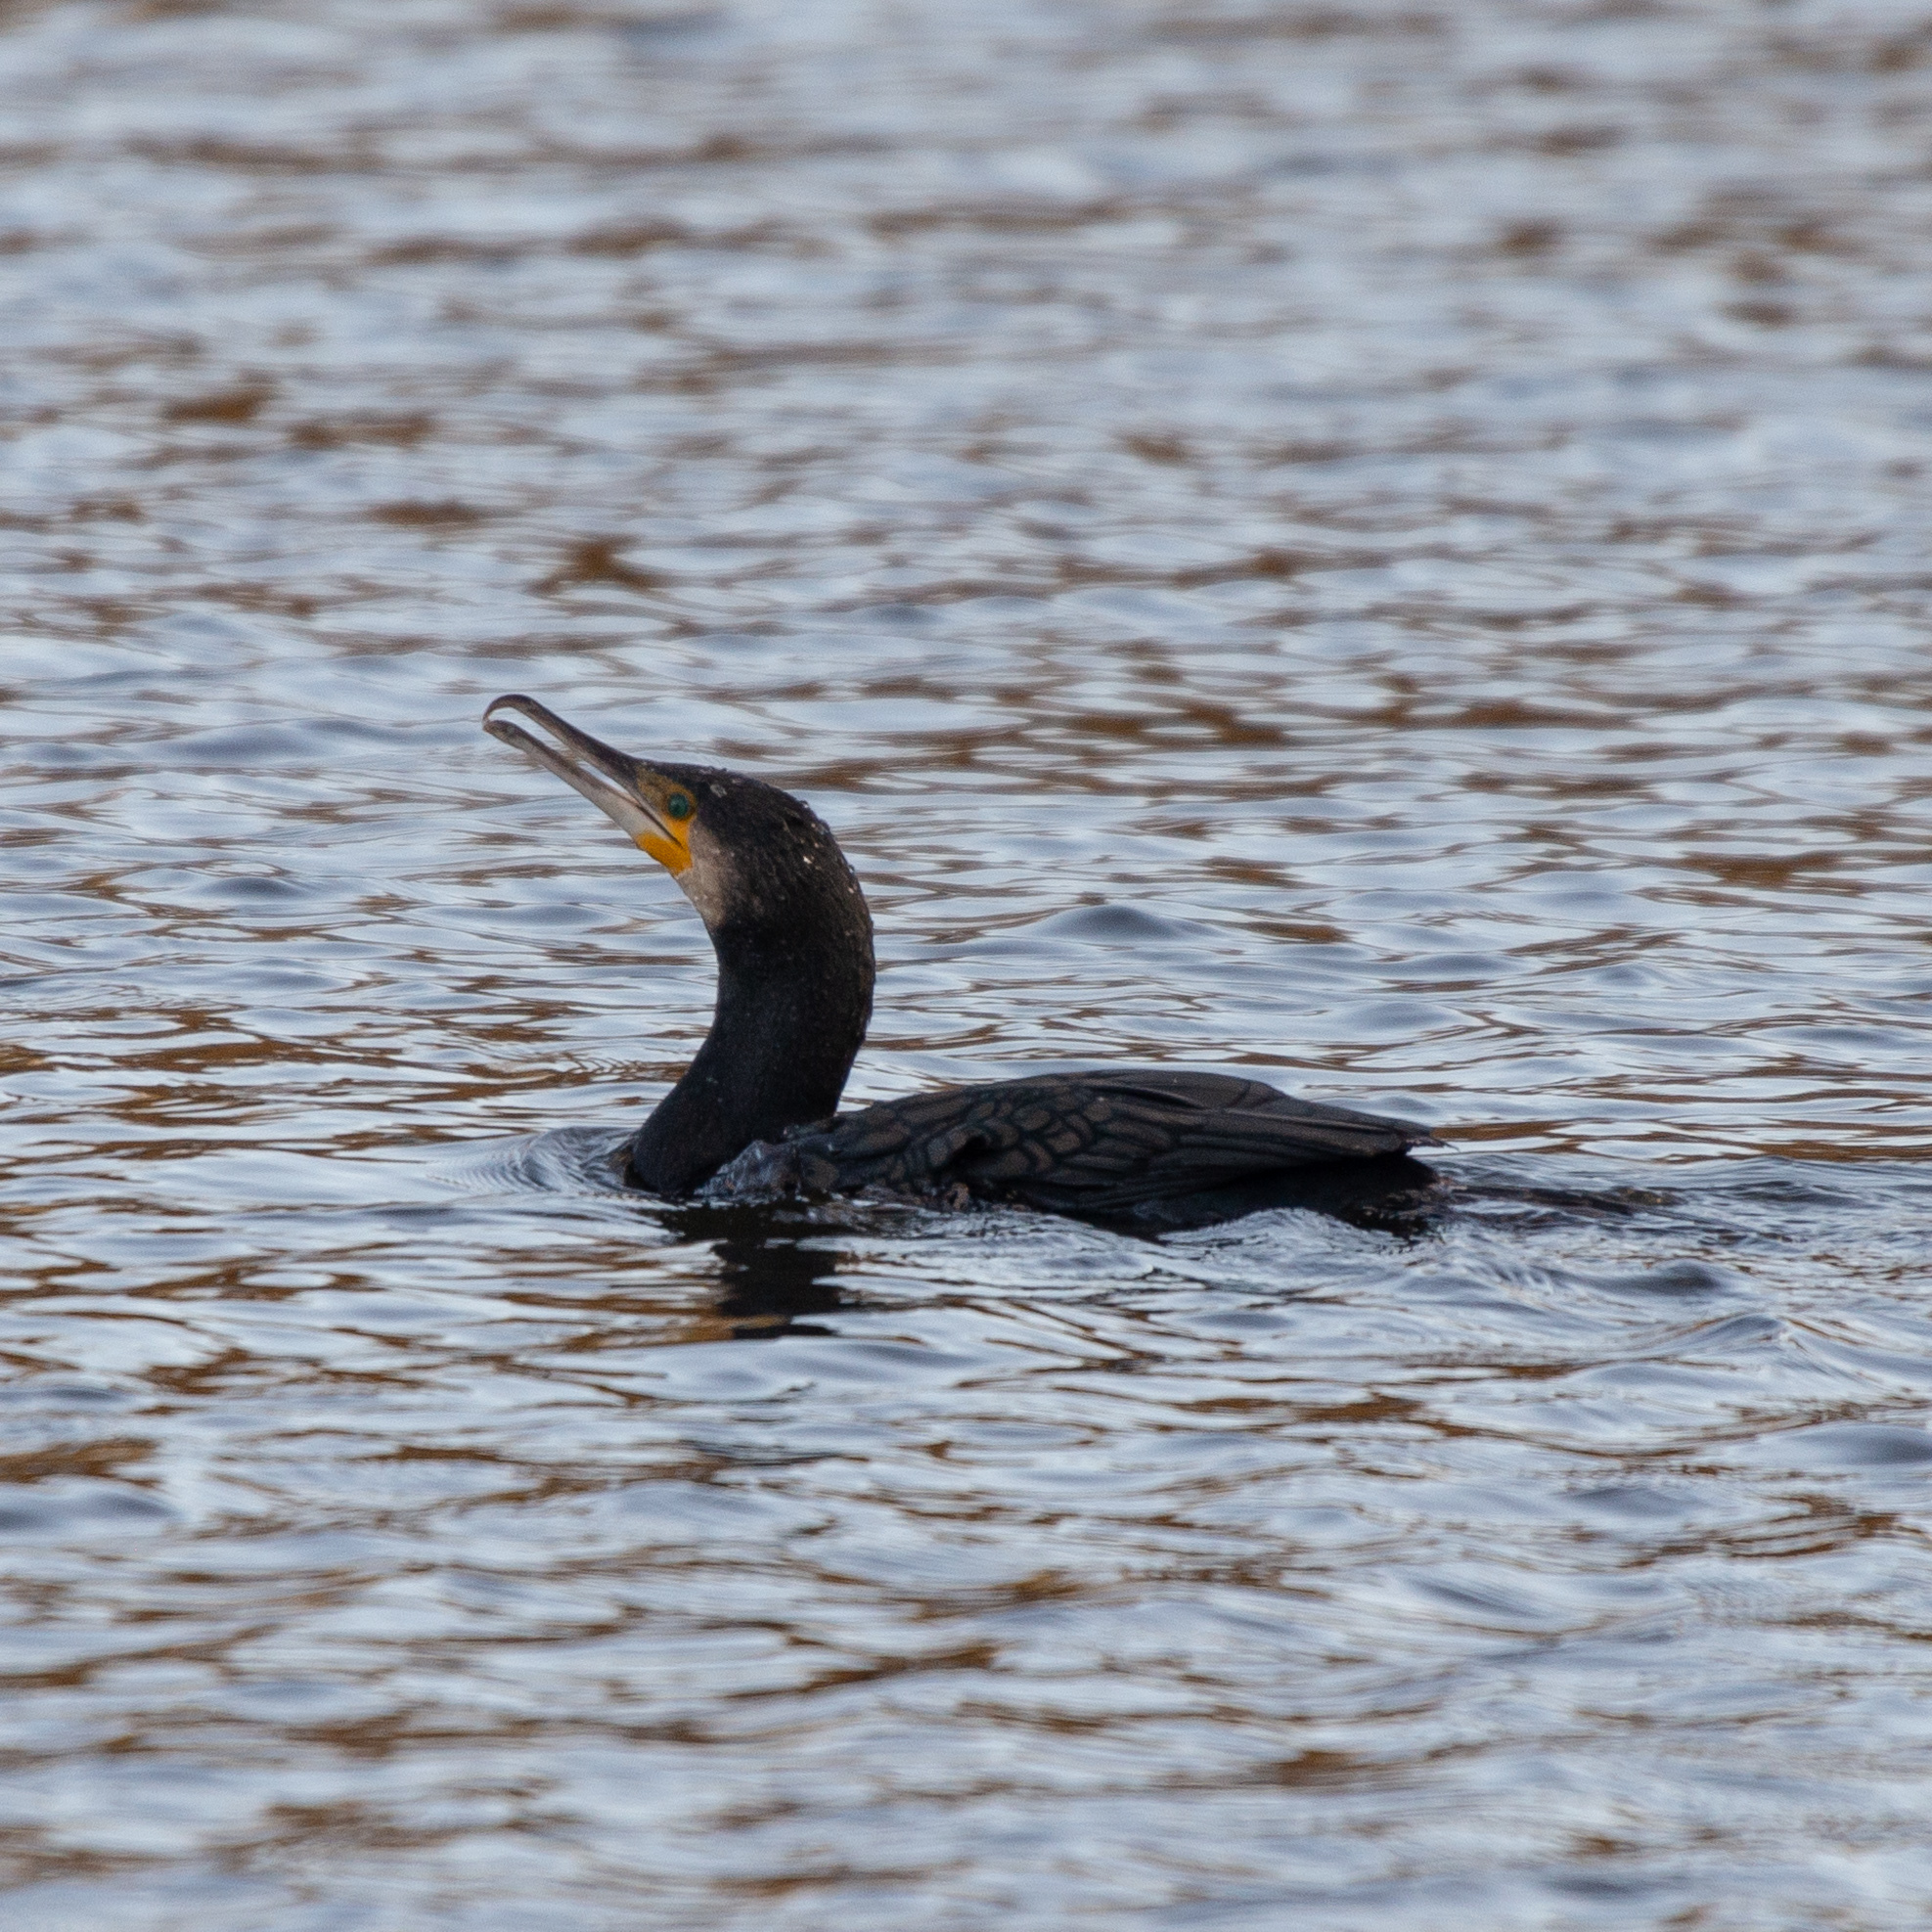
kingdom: Animalia
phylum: Chordata
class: Aves
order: Suliformes
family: Phalacrocoracidae
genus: Phalacrocorax
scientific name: Phalacrocorax carbo
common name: Great cormorant
